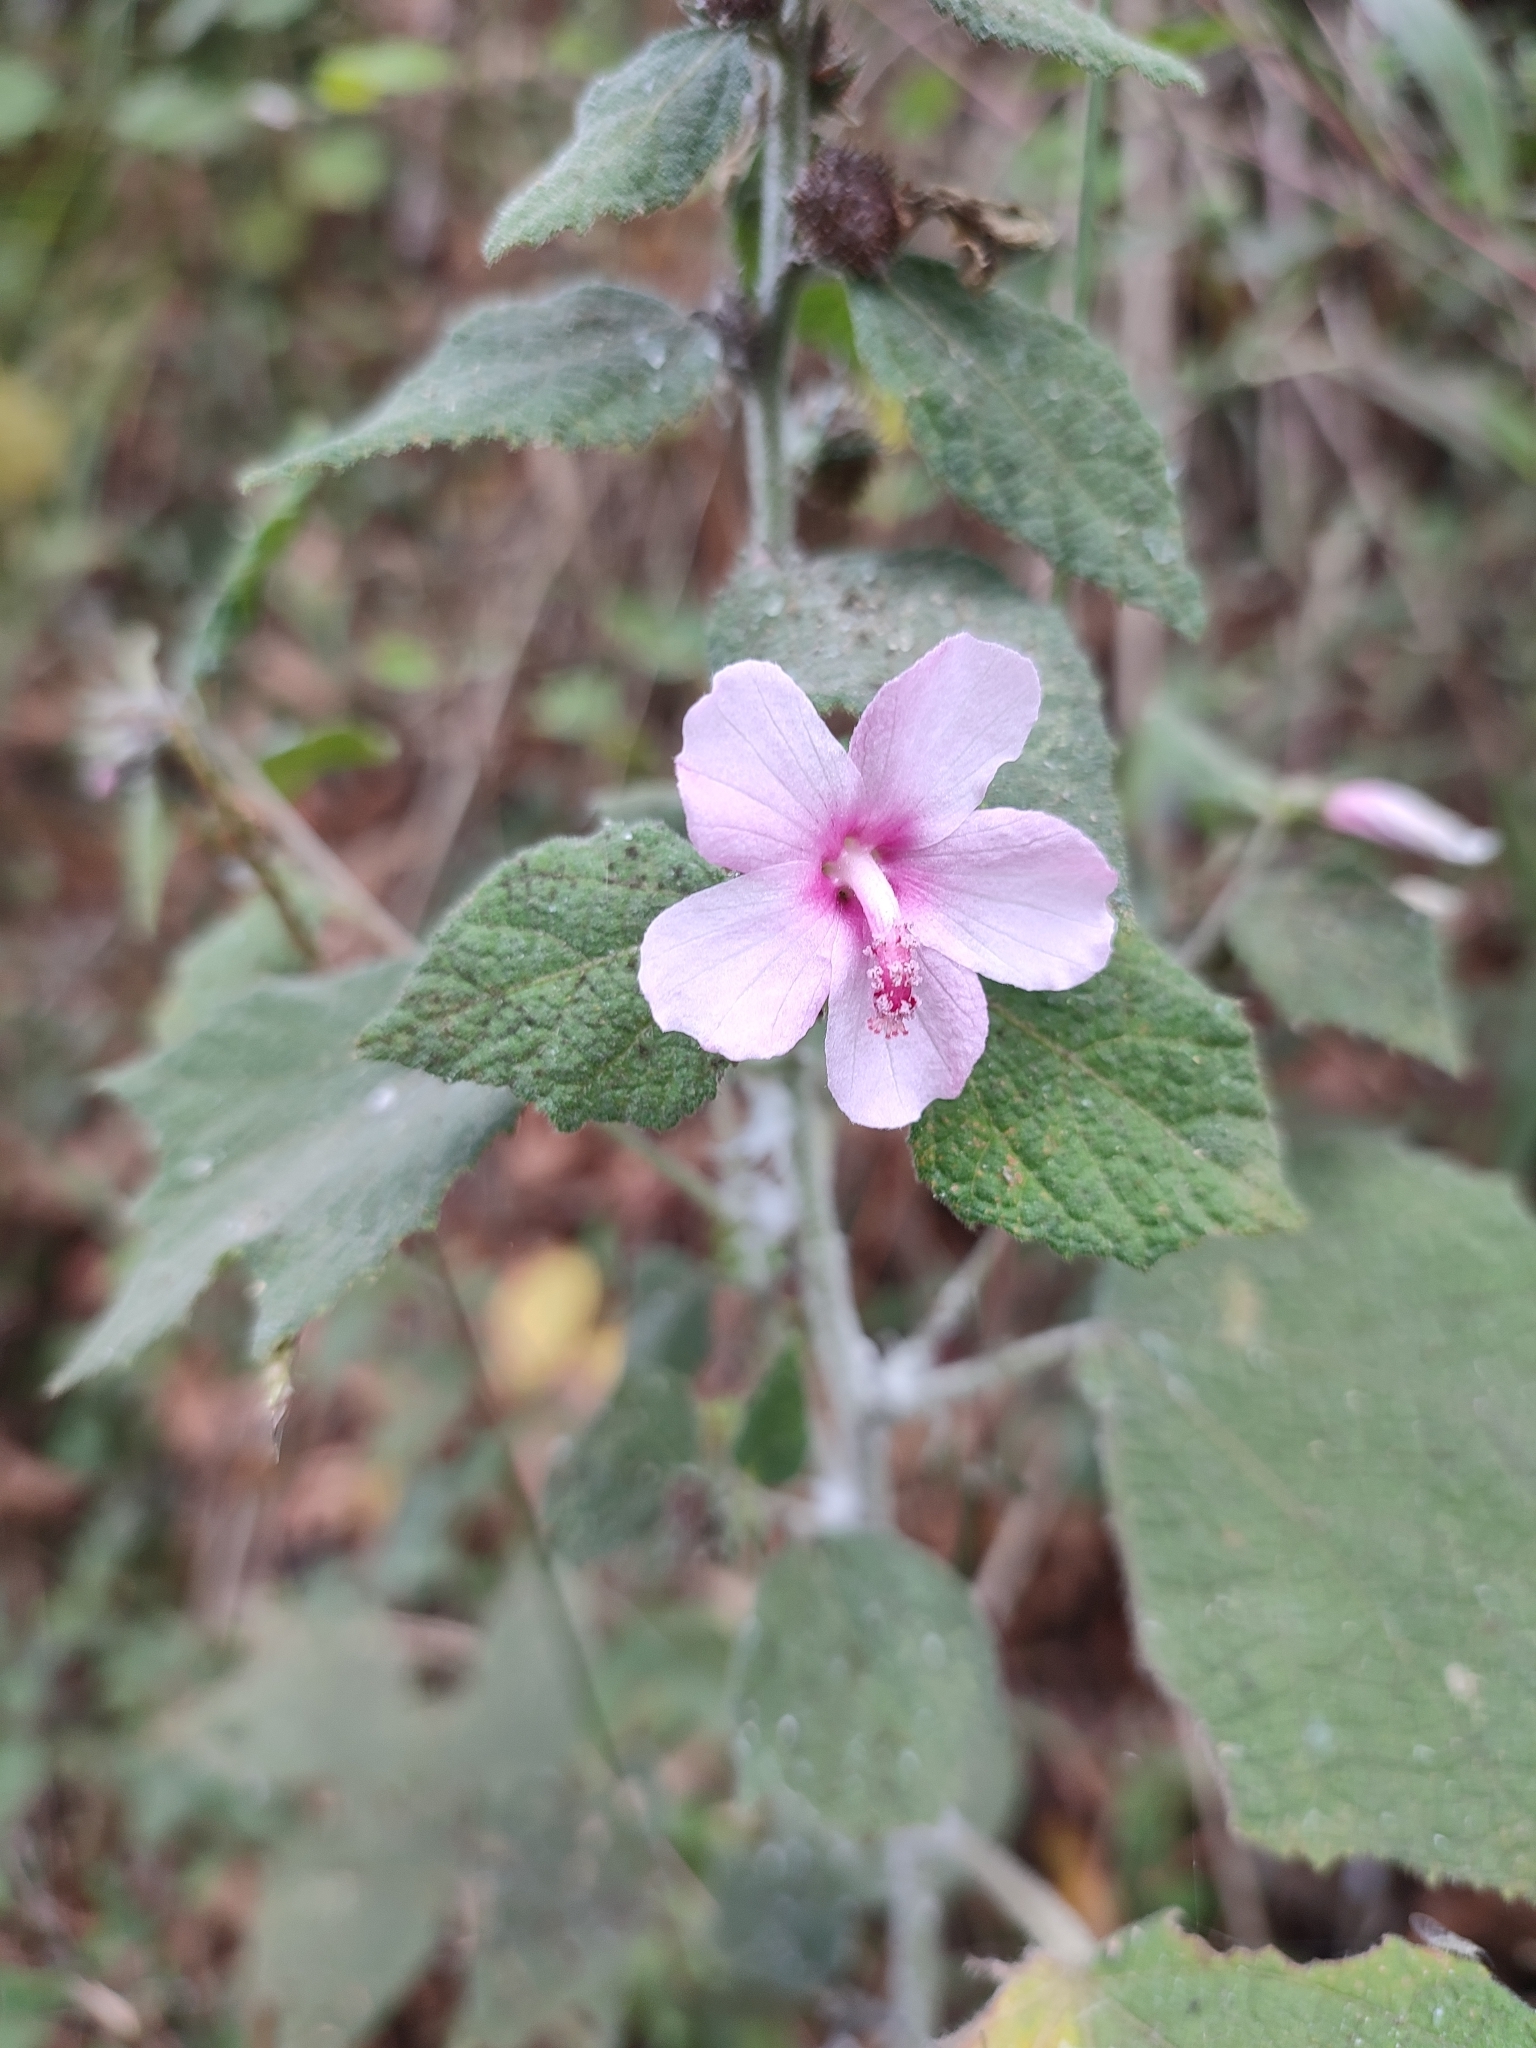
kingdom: Plantae
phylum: Tracheophyta
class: Magnoliopsida
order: Malvales
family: Malvaceae
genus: Urena
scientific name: Urena lobata
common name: Caesarweed
